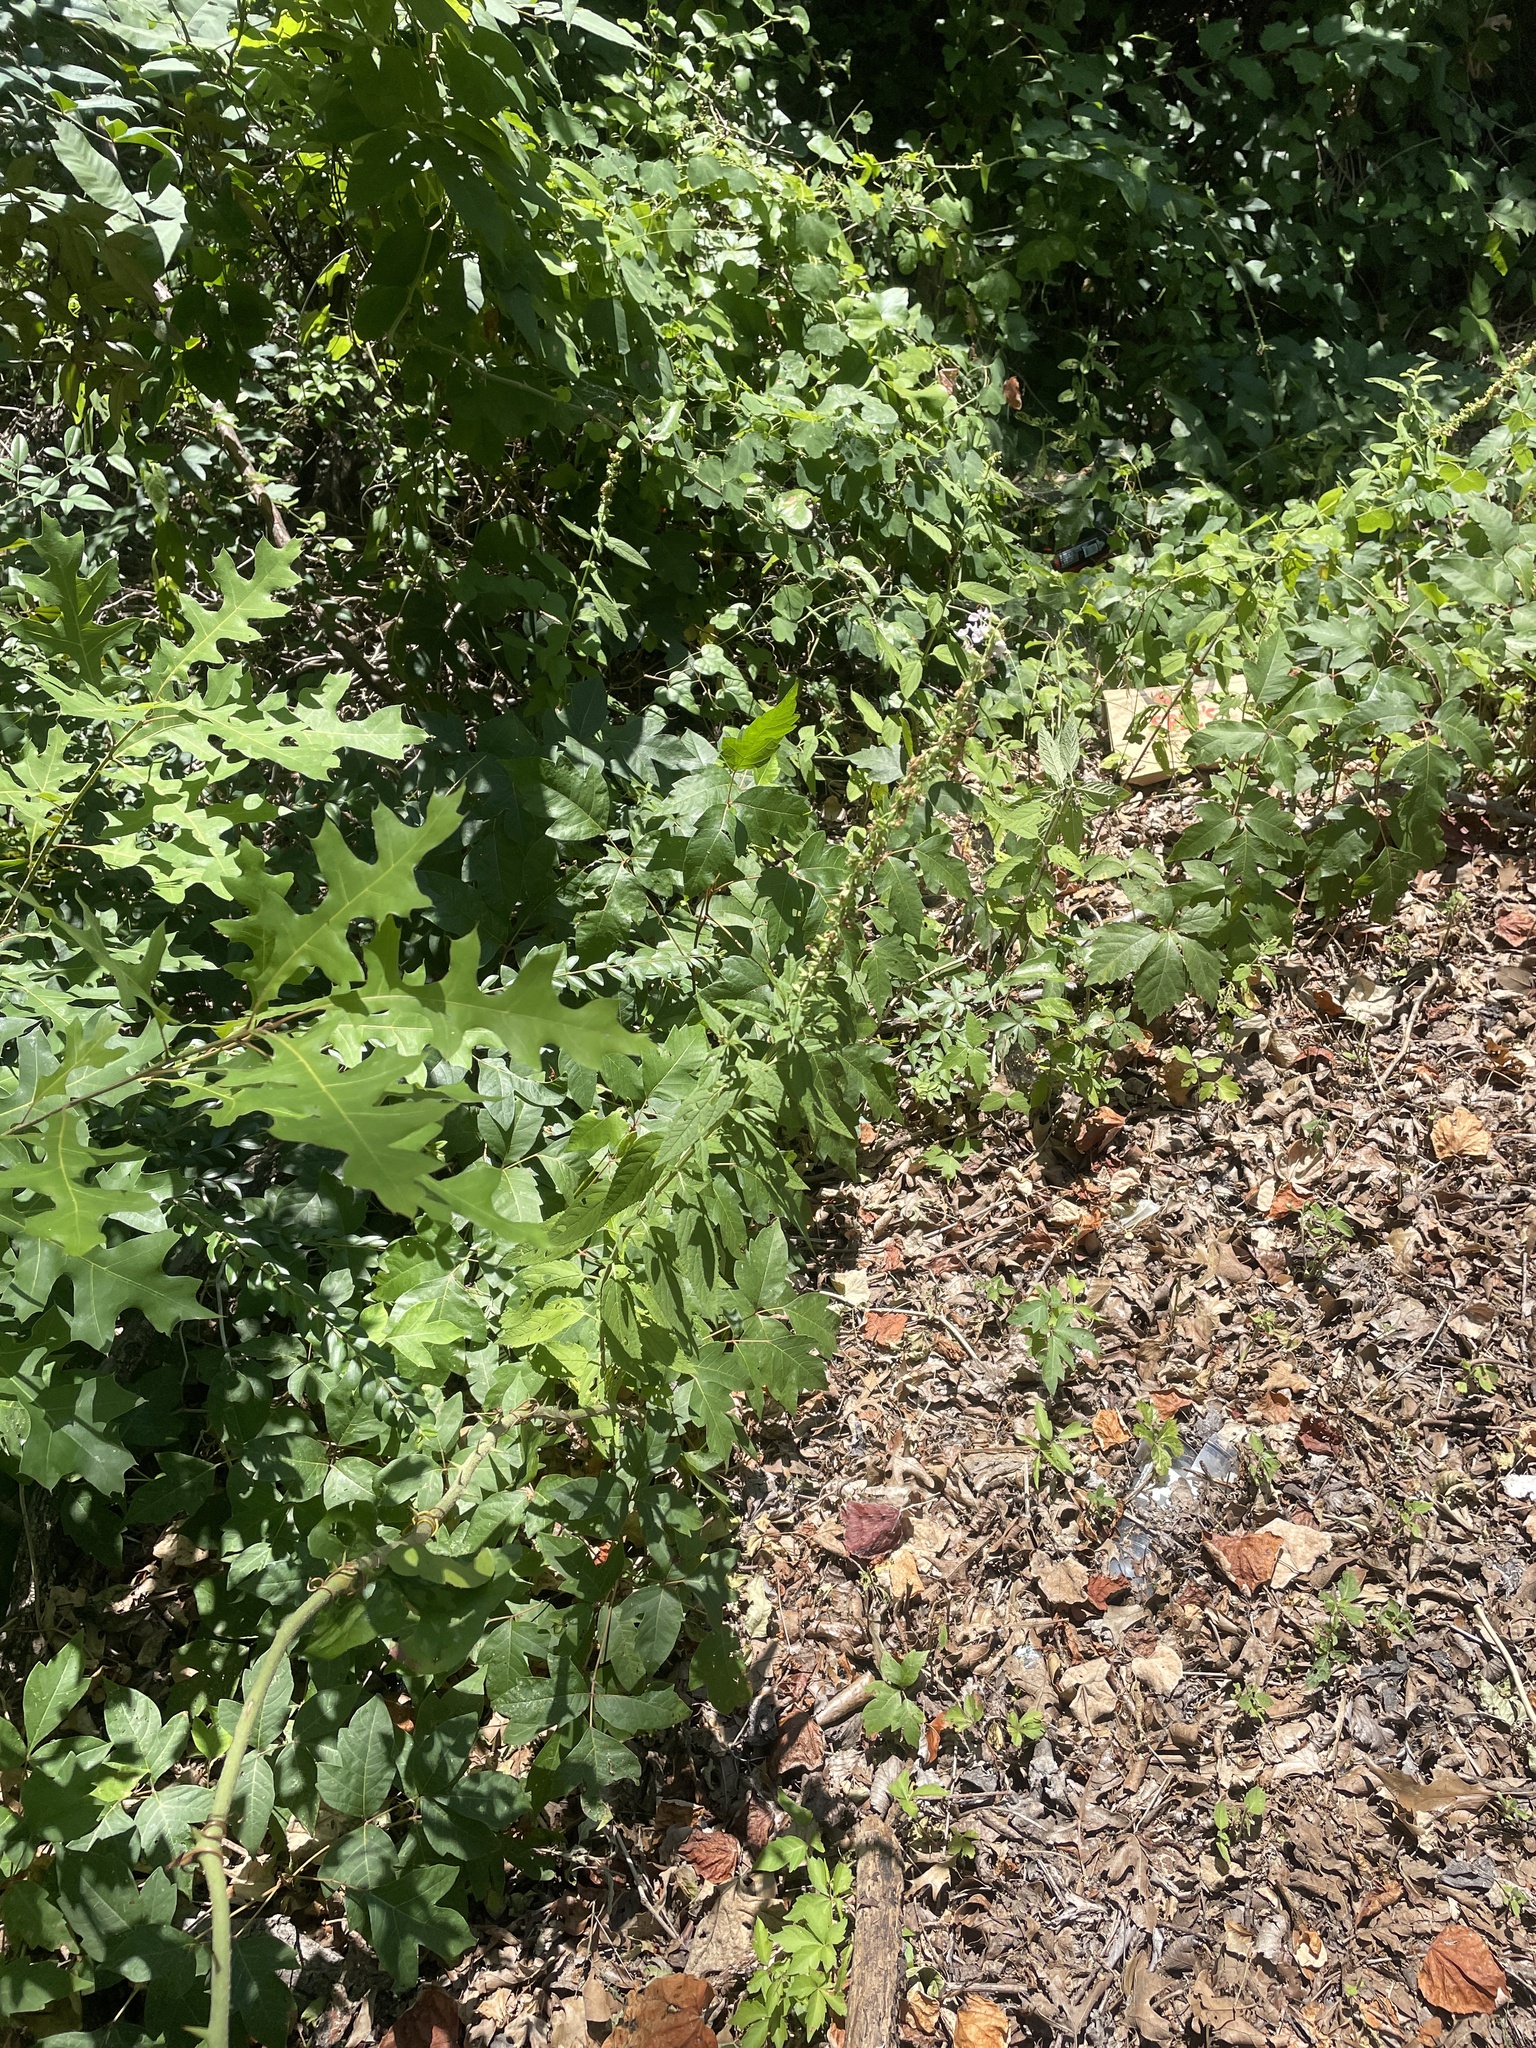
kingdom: Plantae
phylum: Tracheophyta
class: Magnoliopsida
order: Lamiales
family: Lamiaceae
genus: Teucrium
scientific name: Teucrium canadense
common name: American germander
